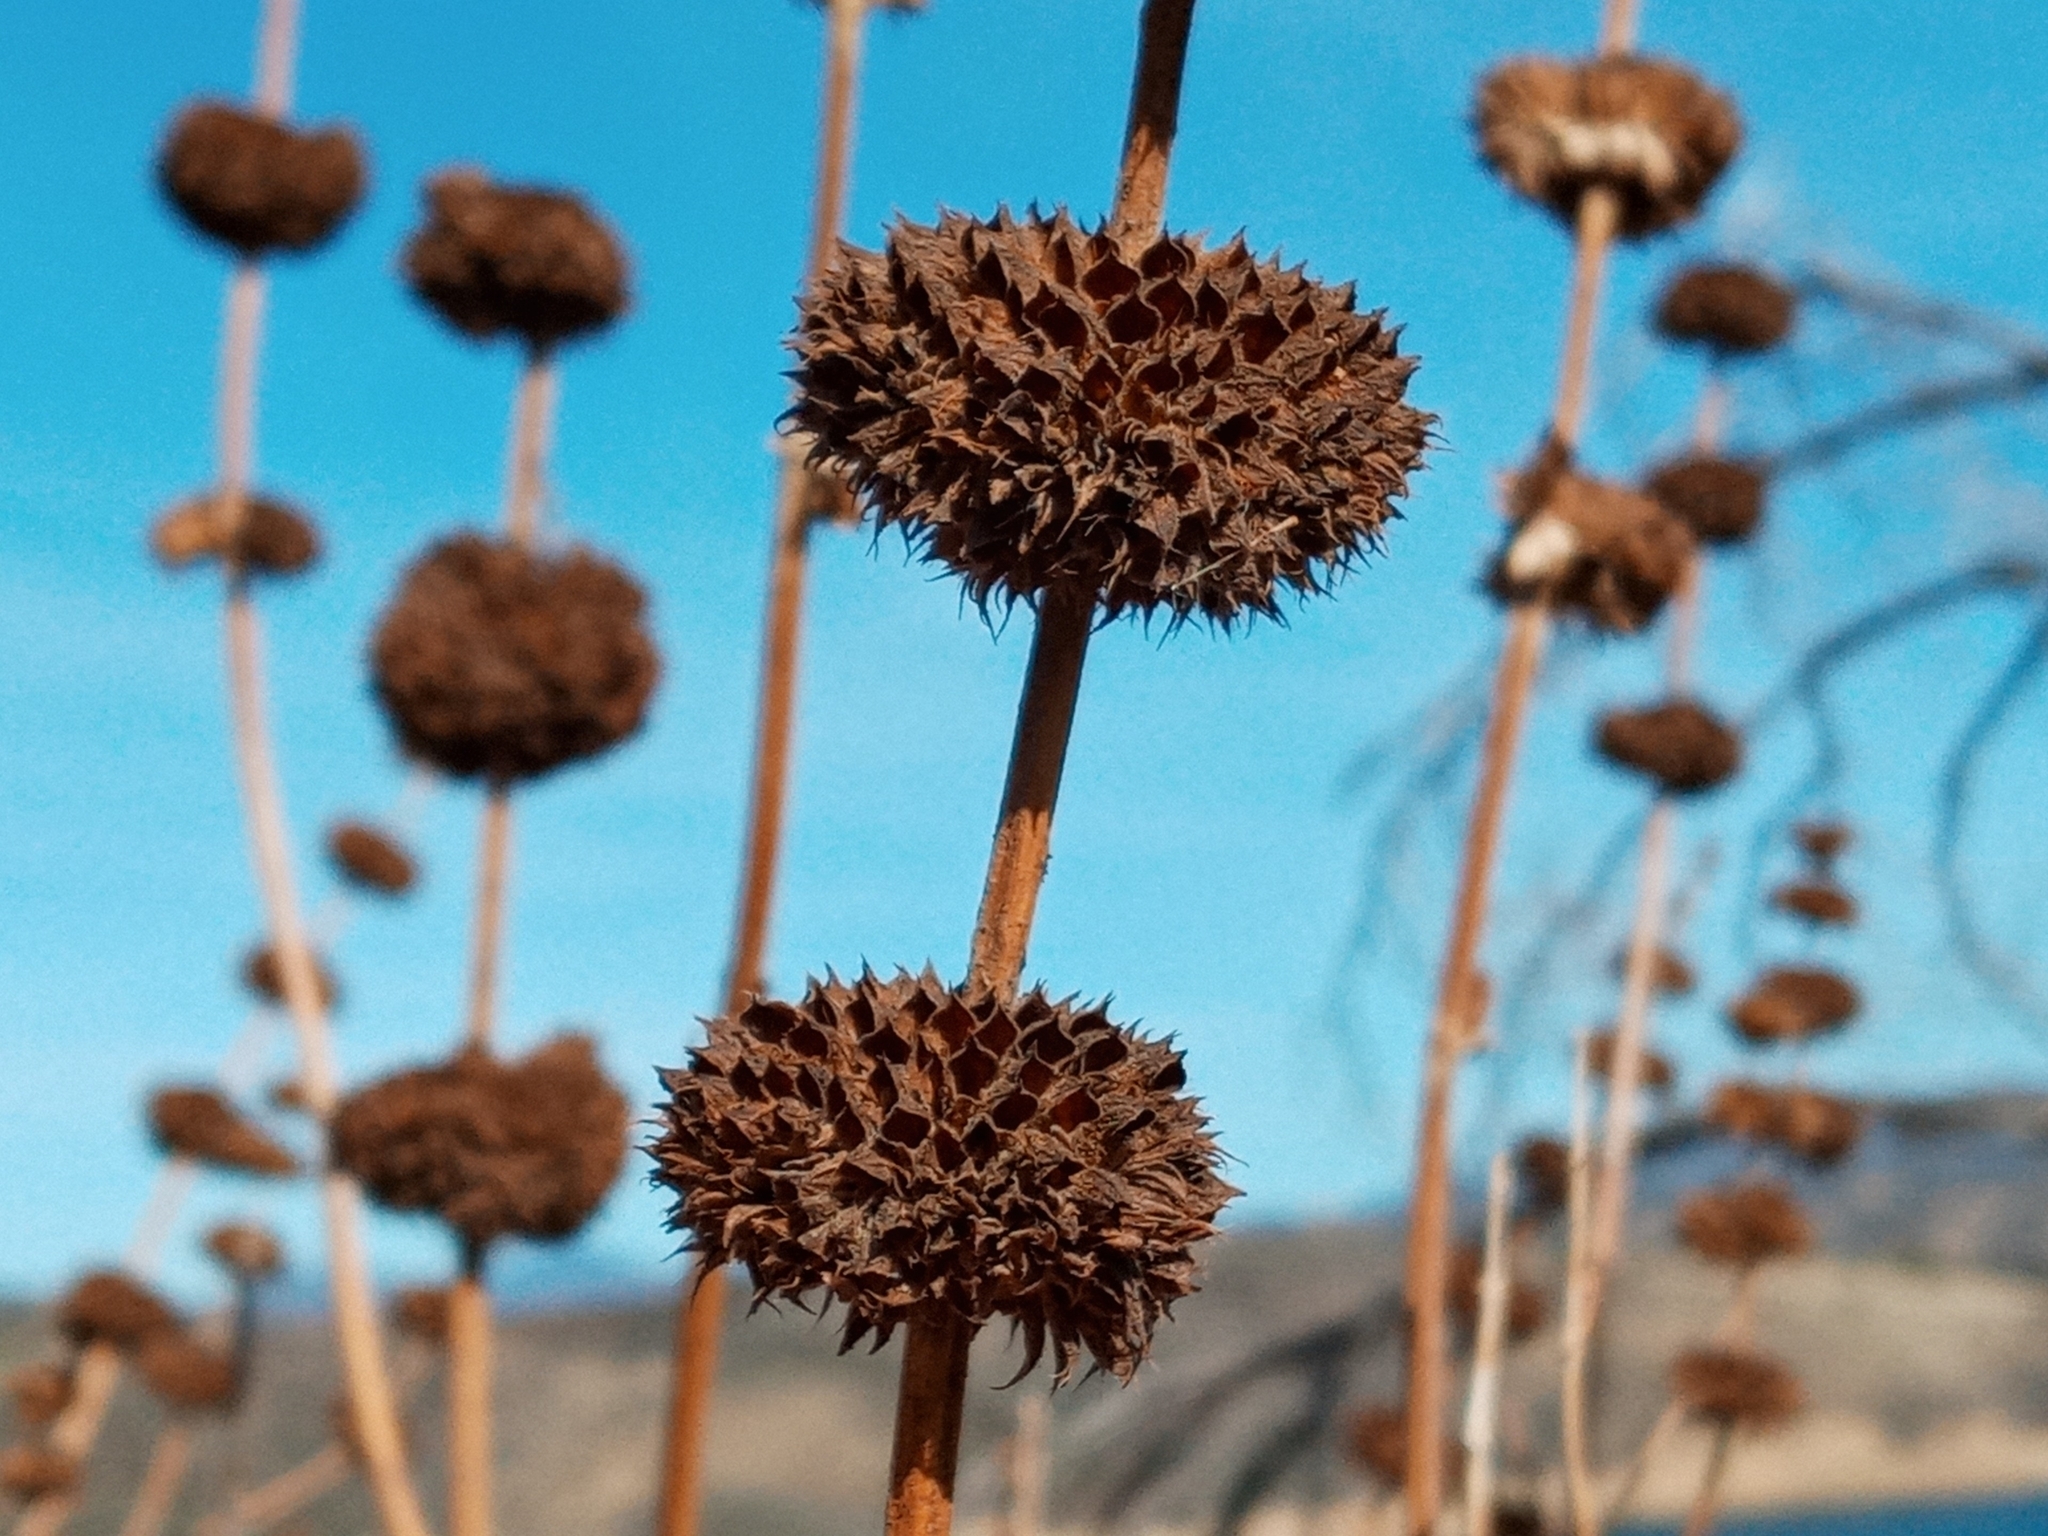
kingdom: Plantae
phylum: Tracheophyta
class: Magnoliopsida
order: Lamiales
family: Lamiaceae
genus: Salvia
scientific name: Salvia mellifera
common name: Black sage
